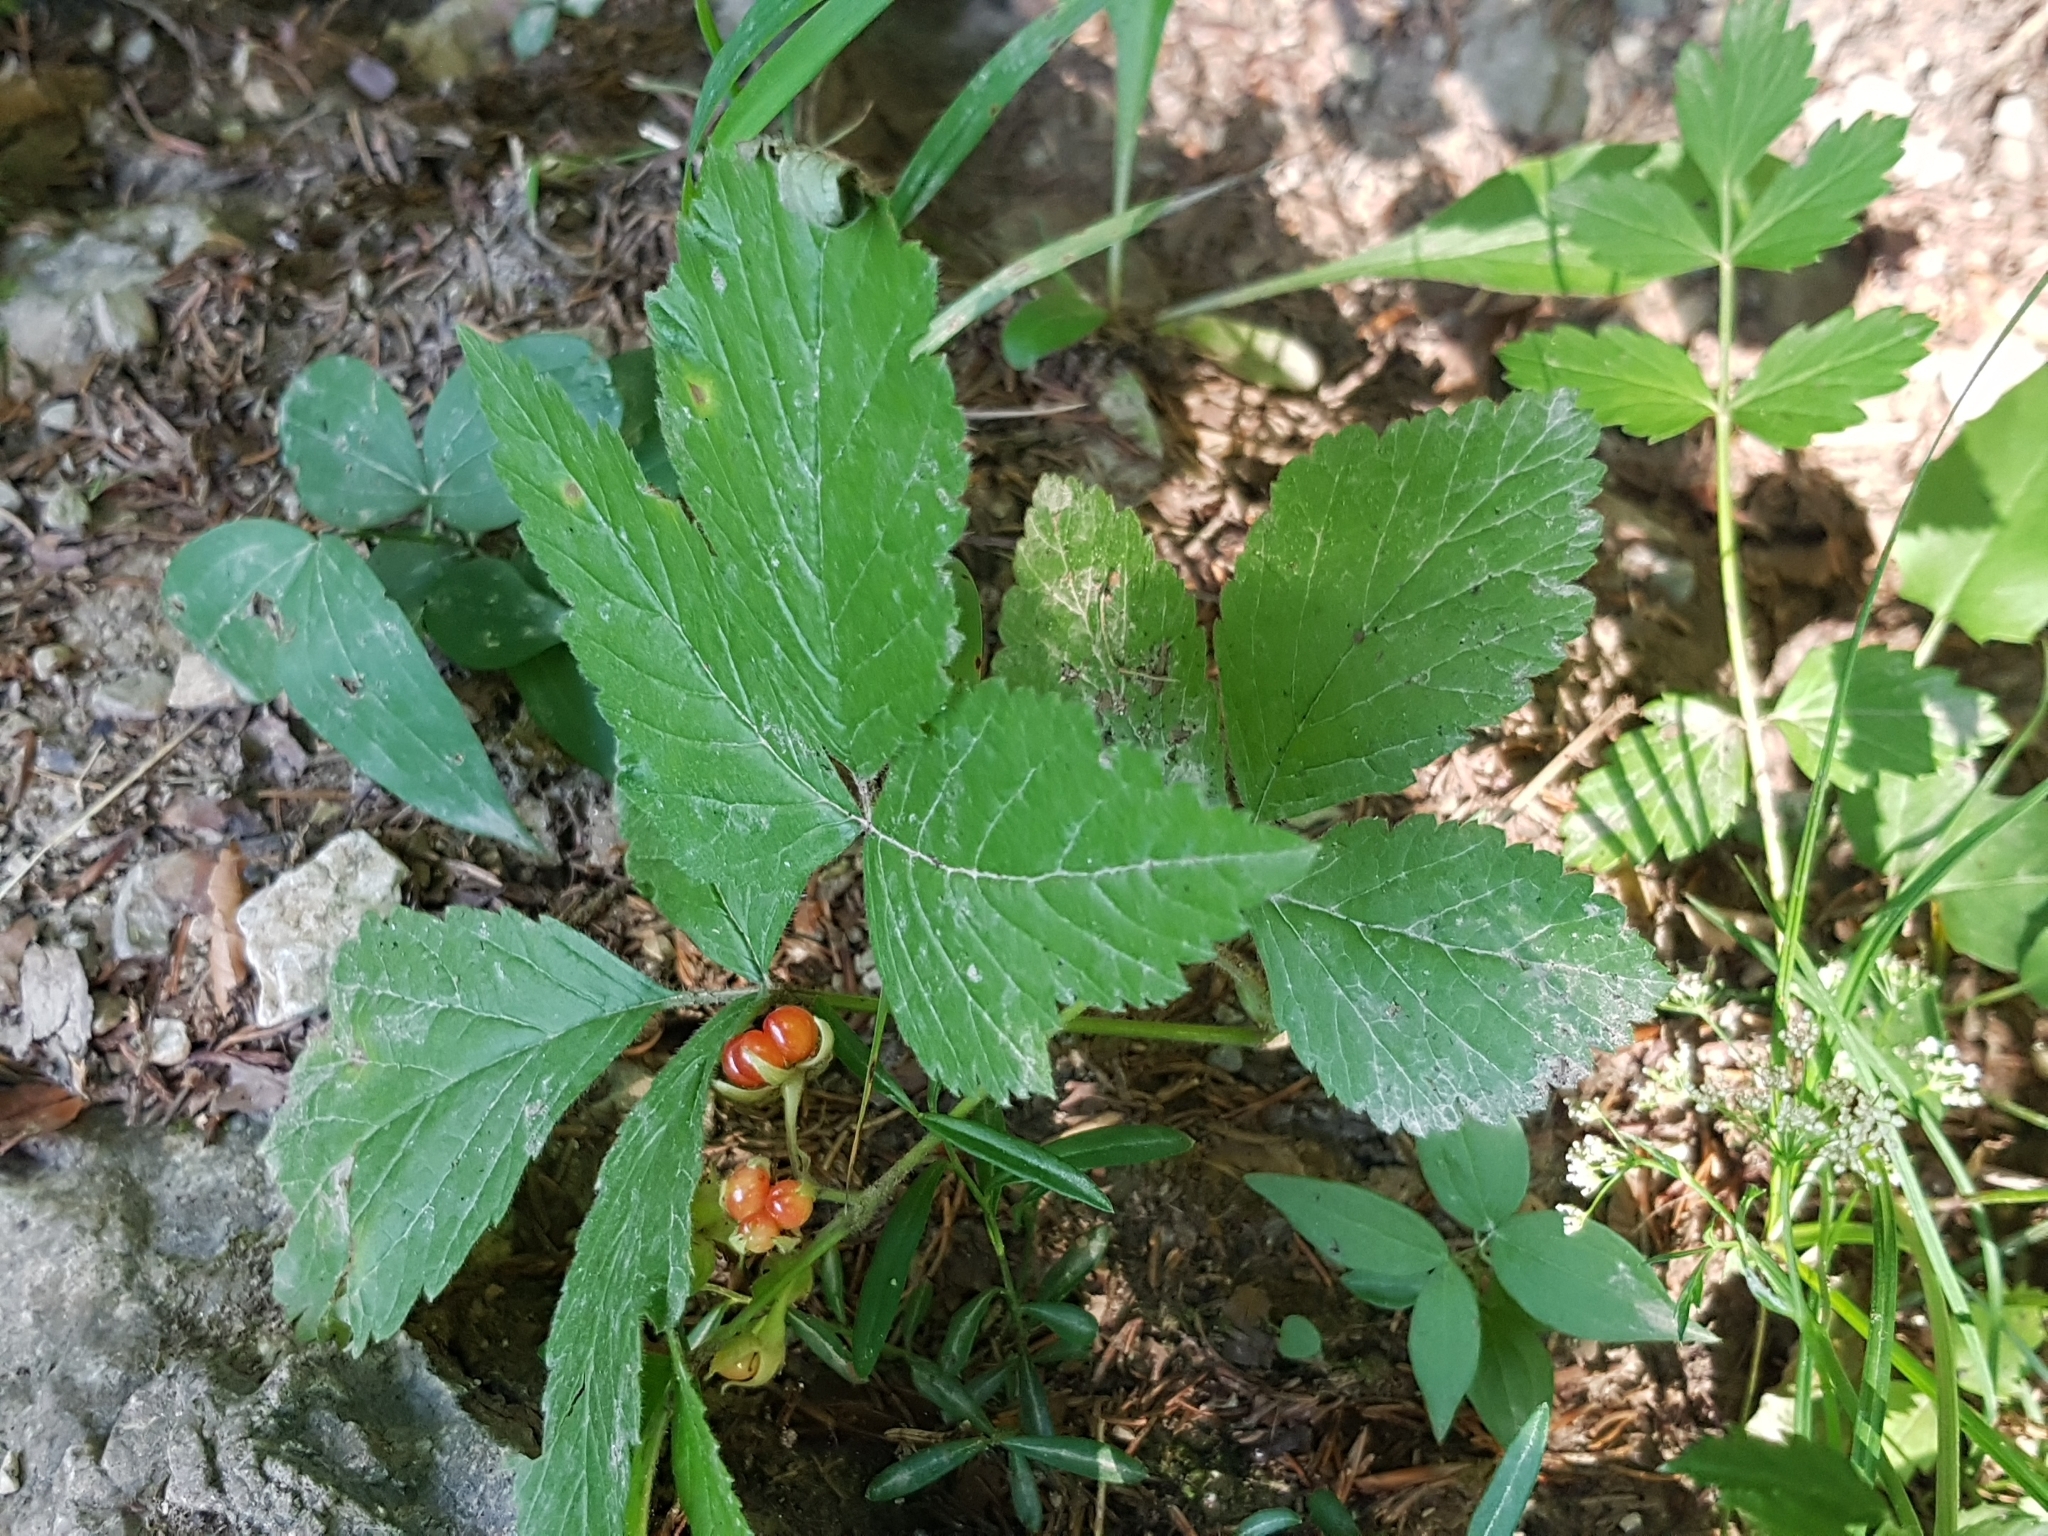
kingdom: Plantae
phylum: Tracheophyta
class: Magnoliopsida
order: Rosales
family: Rosaceae
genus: Rubus
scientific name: Rubus saxatilis
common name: Stone bramble
